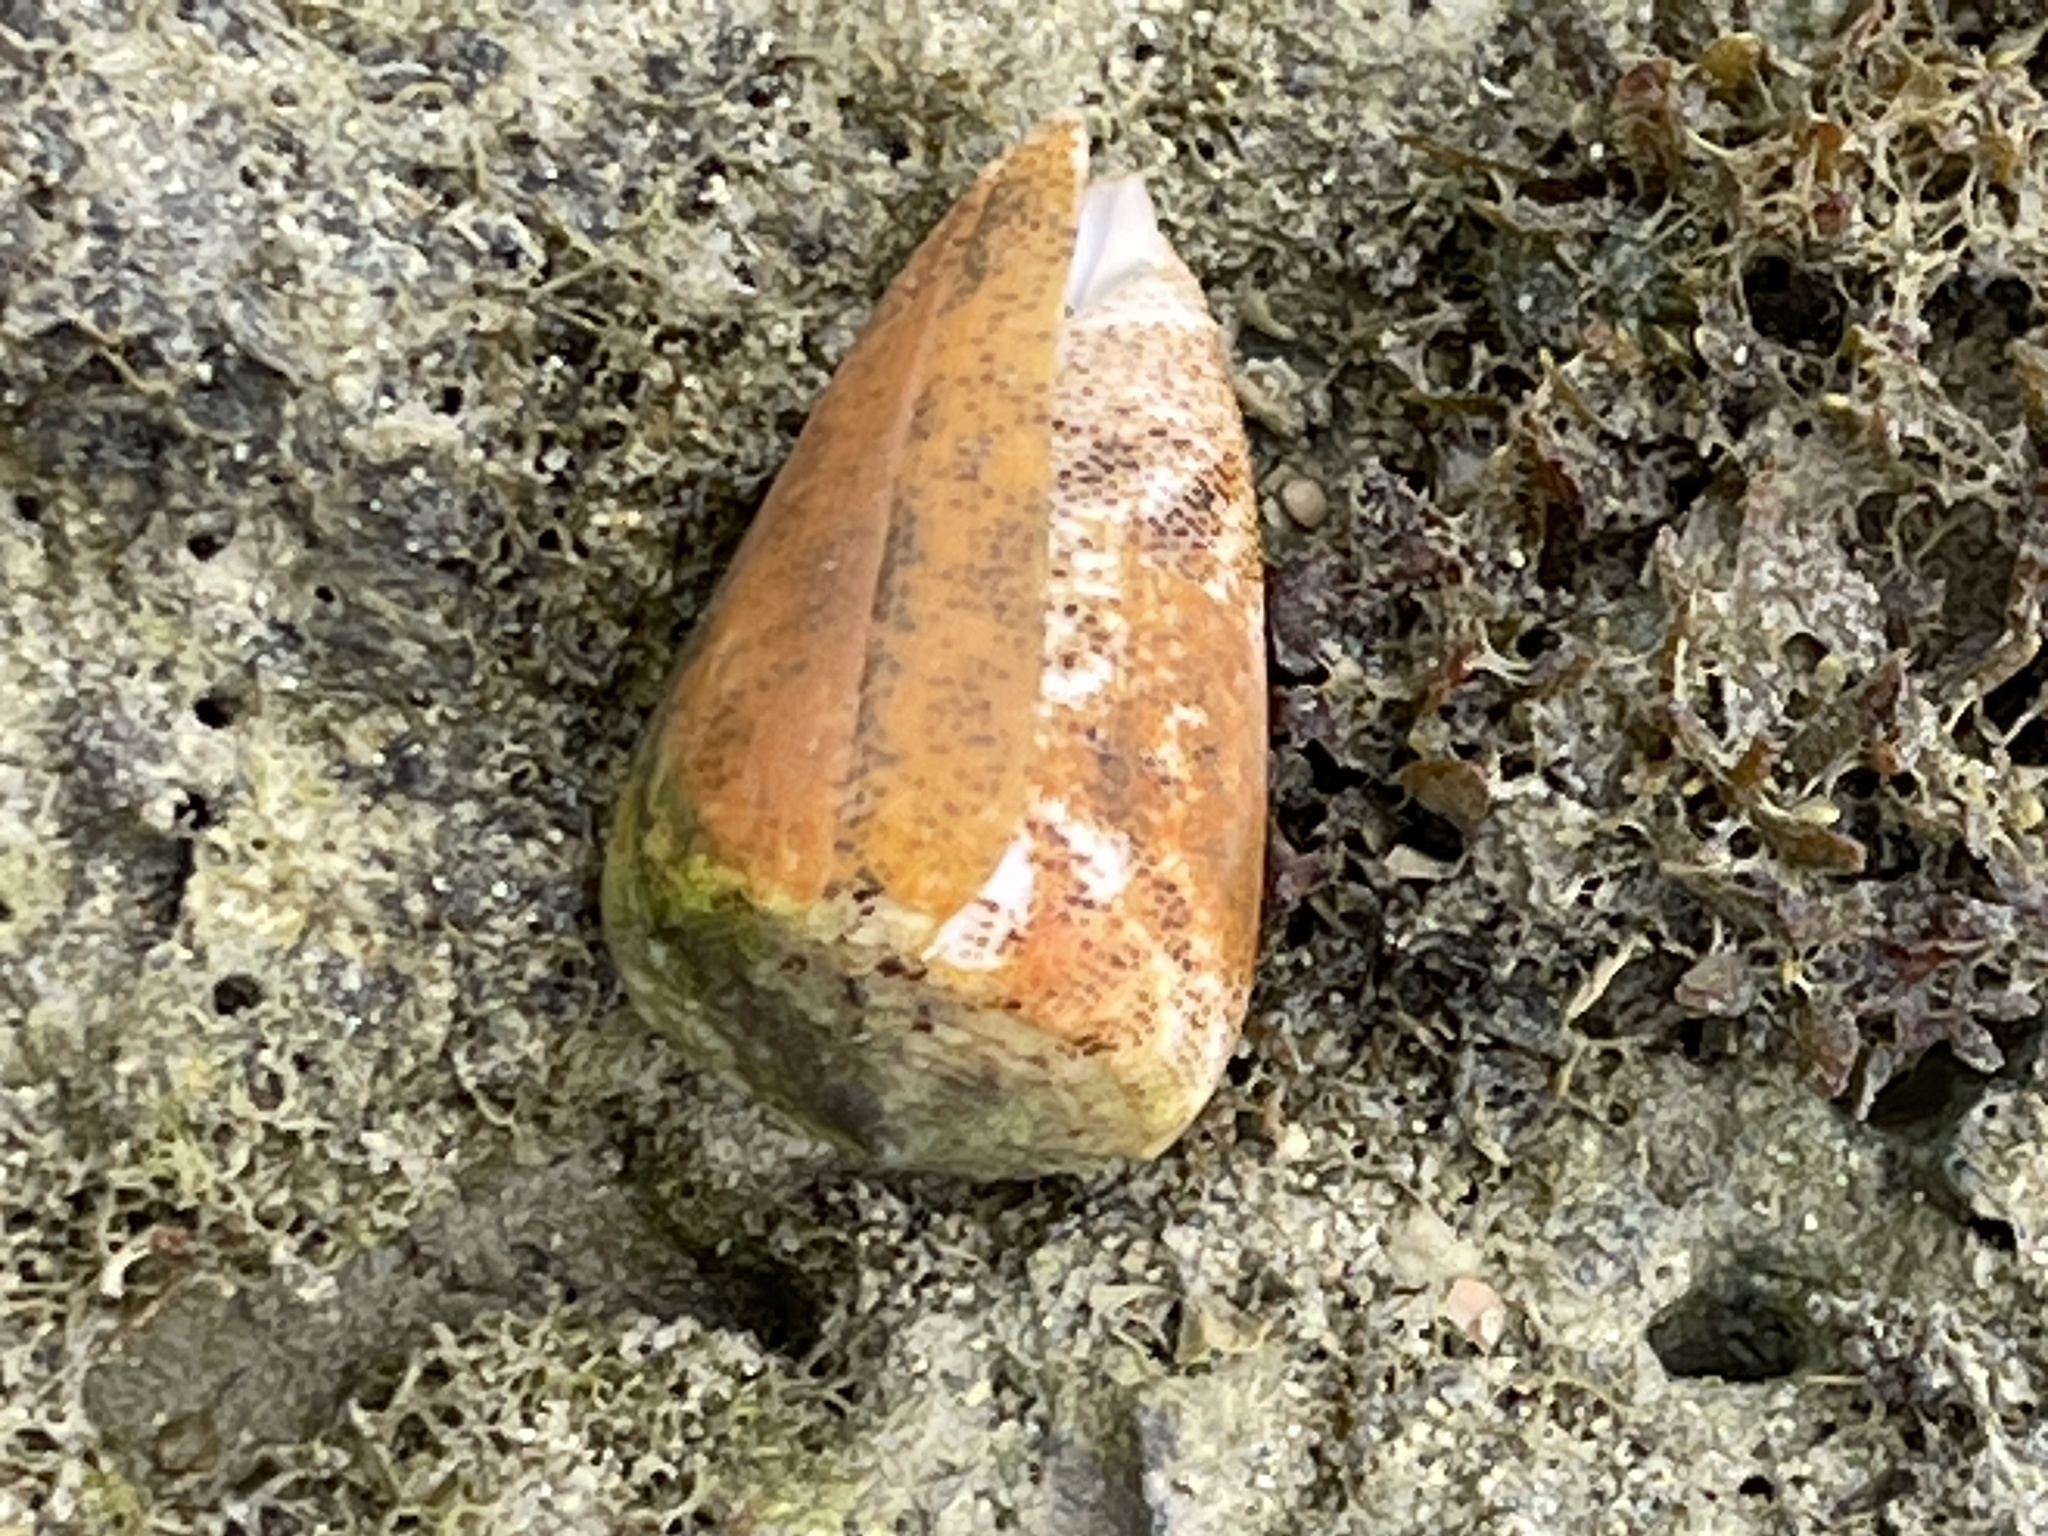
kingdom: Animalia
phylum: Mollusca
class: Gastropoda
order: Neogastropoda
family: Conidae
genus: Conus
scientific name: Conus arenatus
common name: Sand-dusted cone
